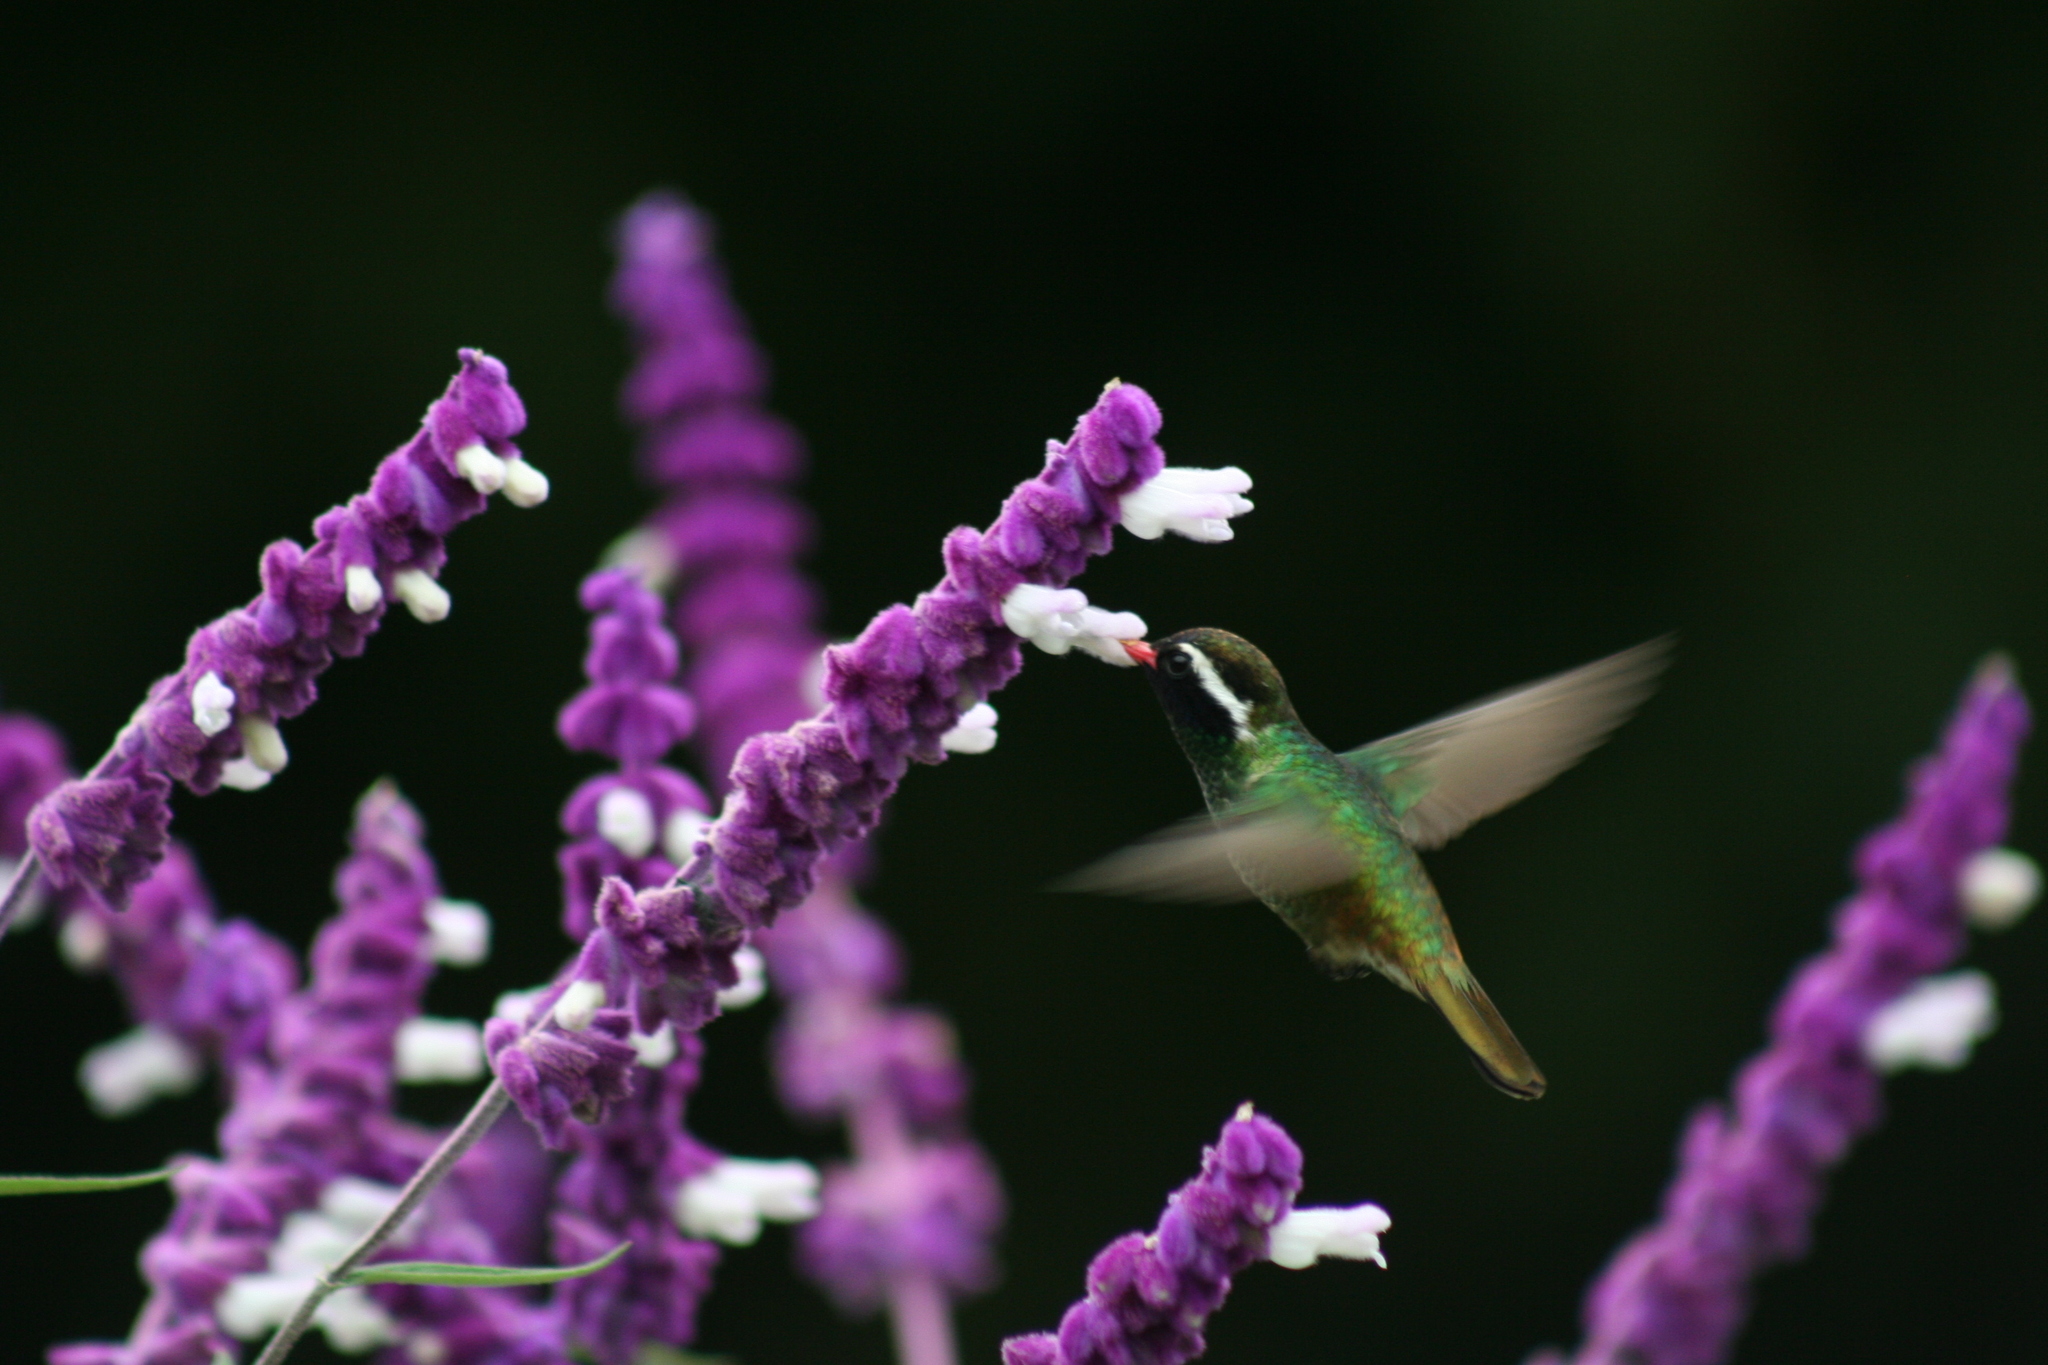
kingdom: Animalia
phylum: Chordata
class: Aves
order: Apodiformes
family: Trochilidae
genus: Basilinna
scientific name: Basilinna leucotis
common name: White-eared hummingbird
